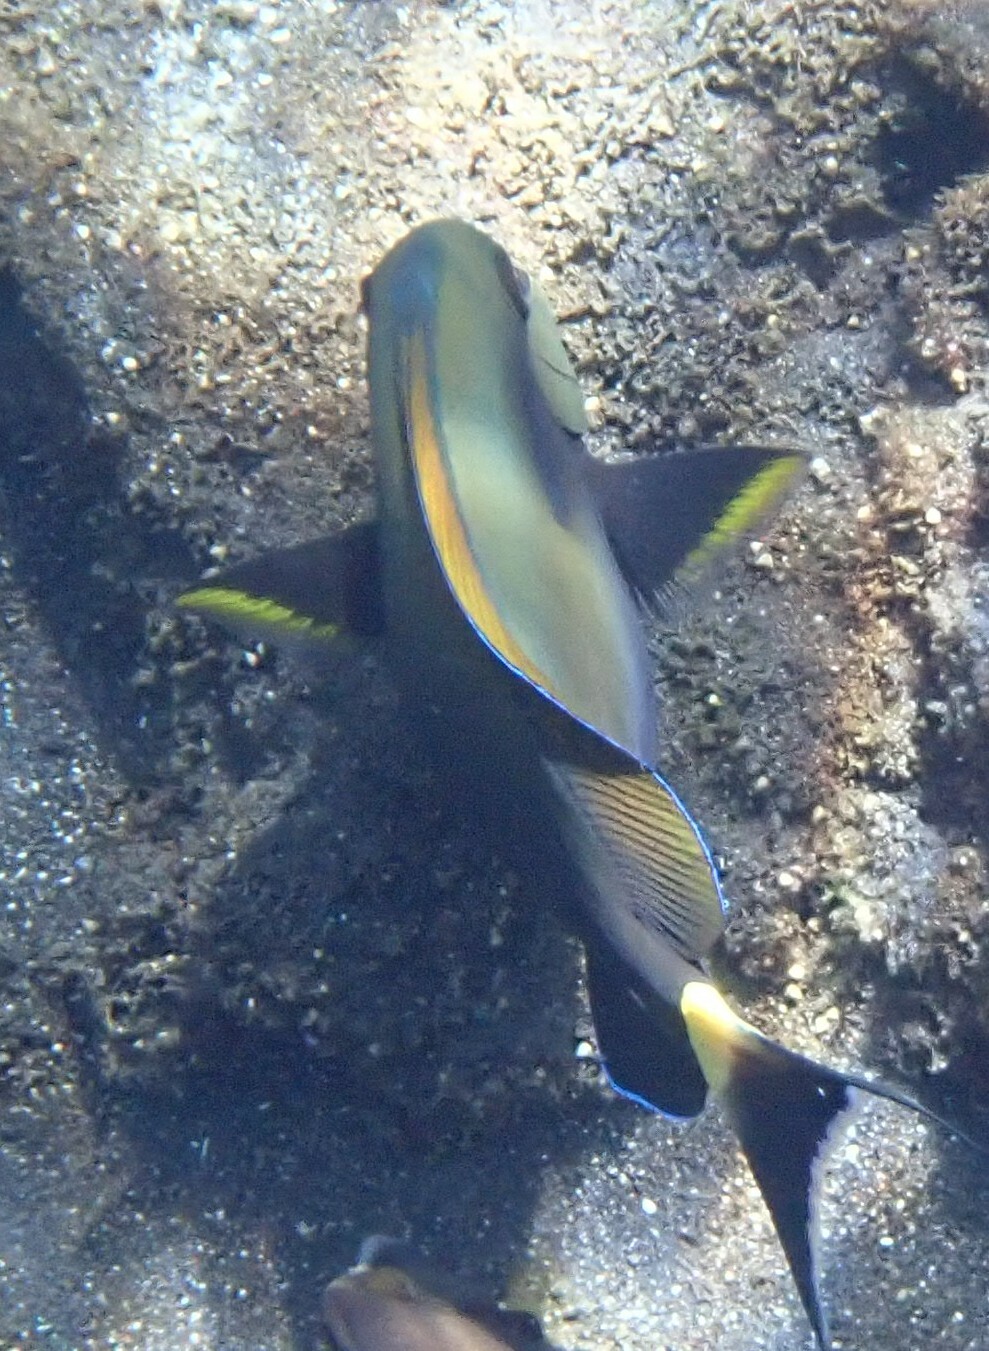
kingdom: Animalia
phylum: Chordata
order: Perciformes
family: Acanthuridae
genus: Acanthurus
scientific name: Acanthurus nigricauda
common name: Black-barred surgeonfish
